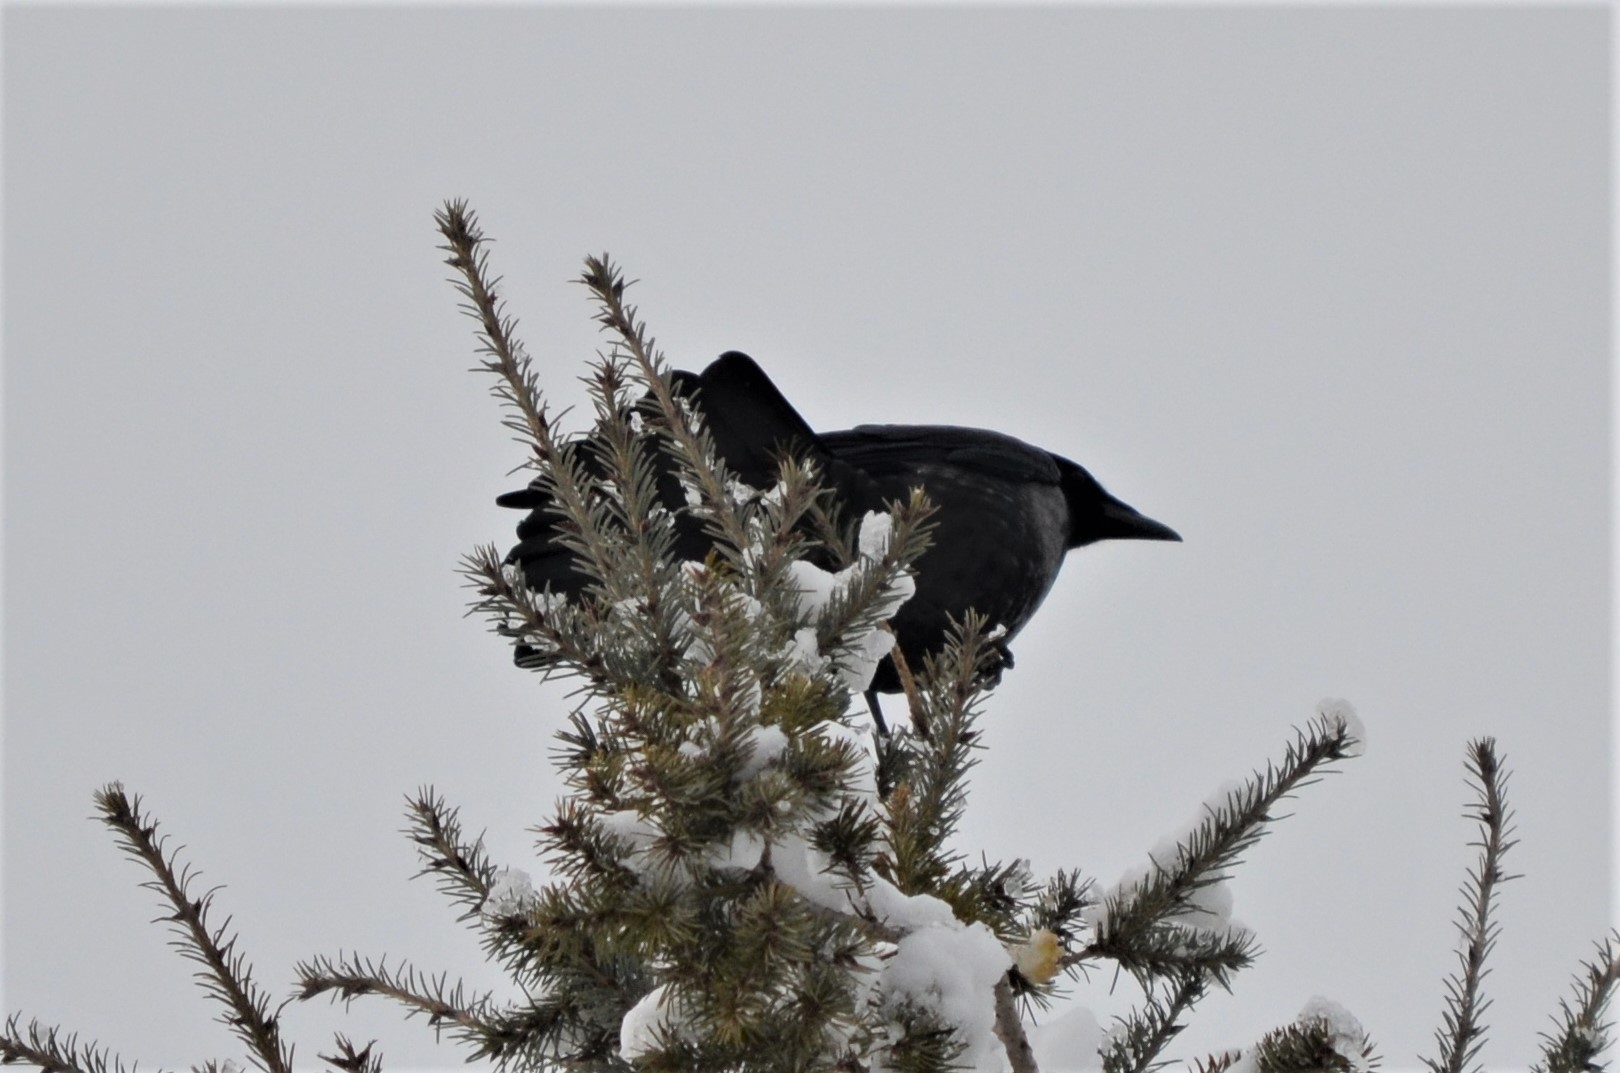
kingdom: Animalia
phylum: Chordata
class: Aves
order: Passeriformes
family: Corvidae
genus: Corvus
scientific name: Corvus cornix
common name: Hooded crow
